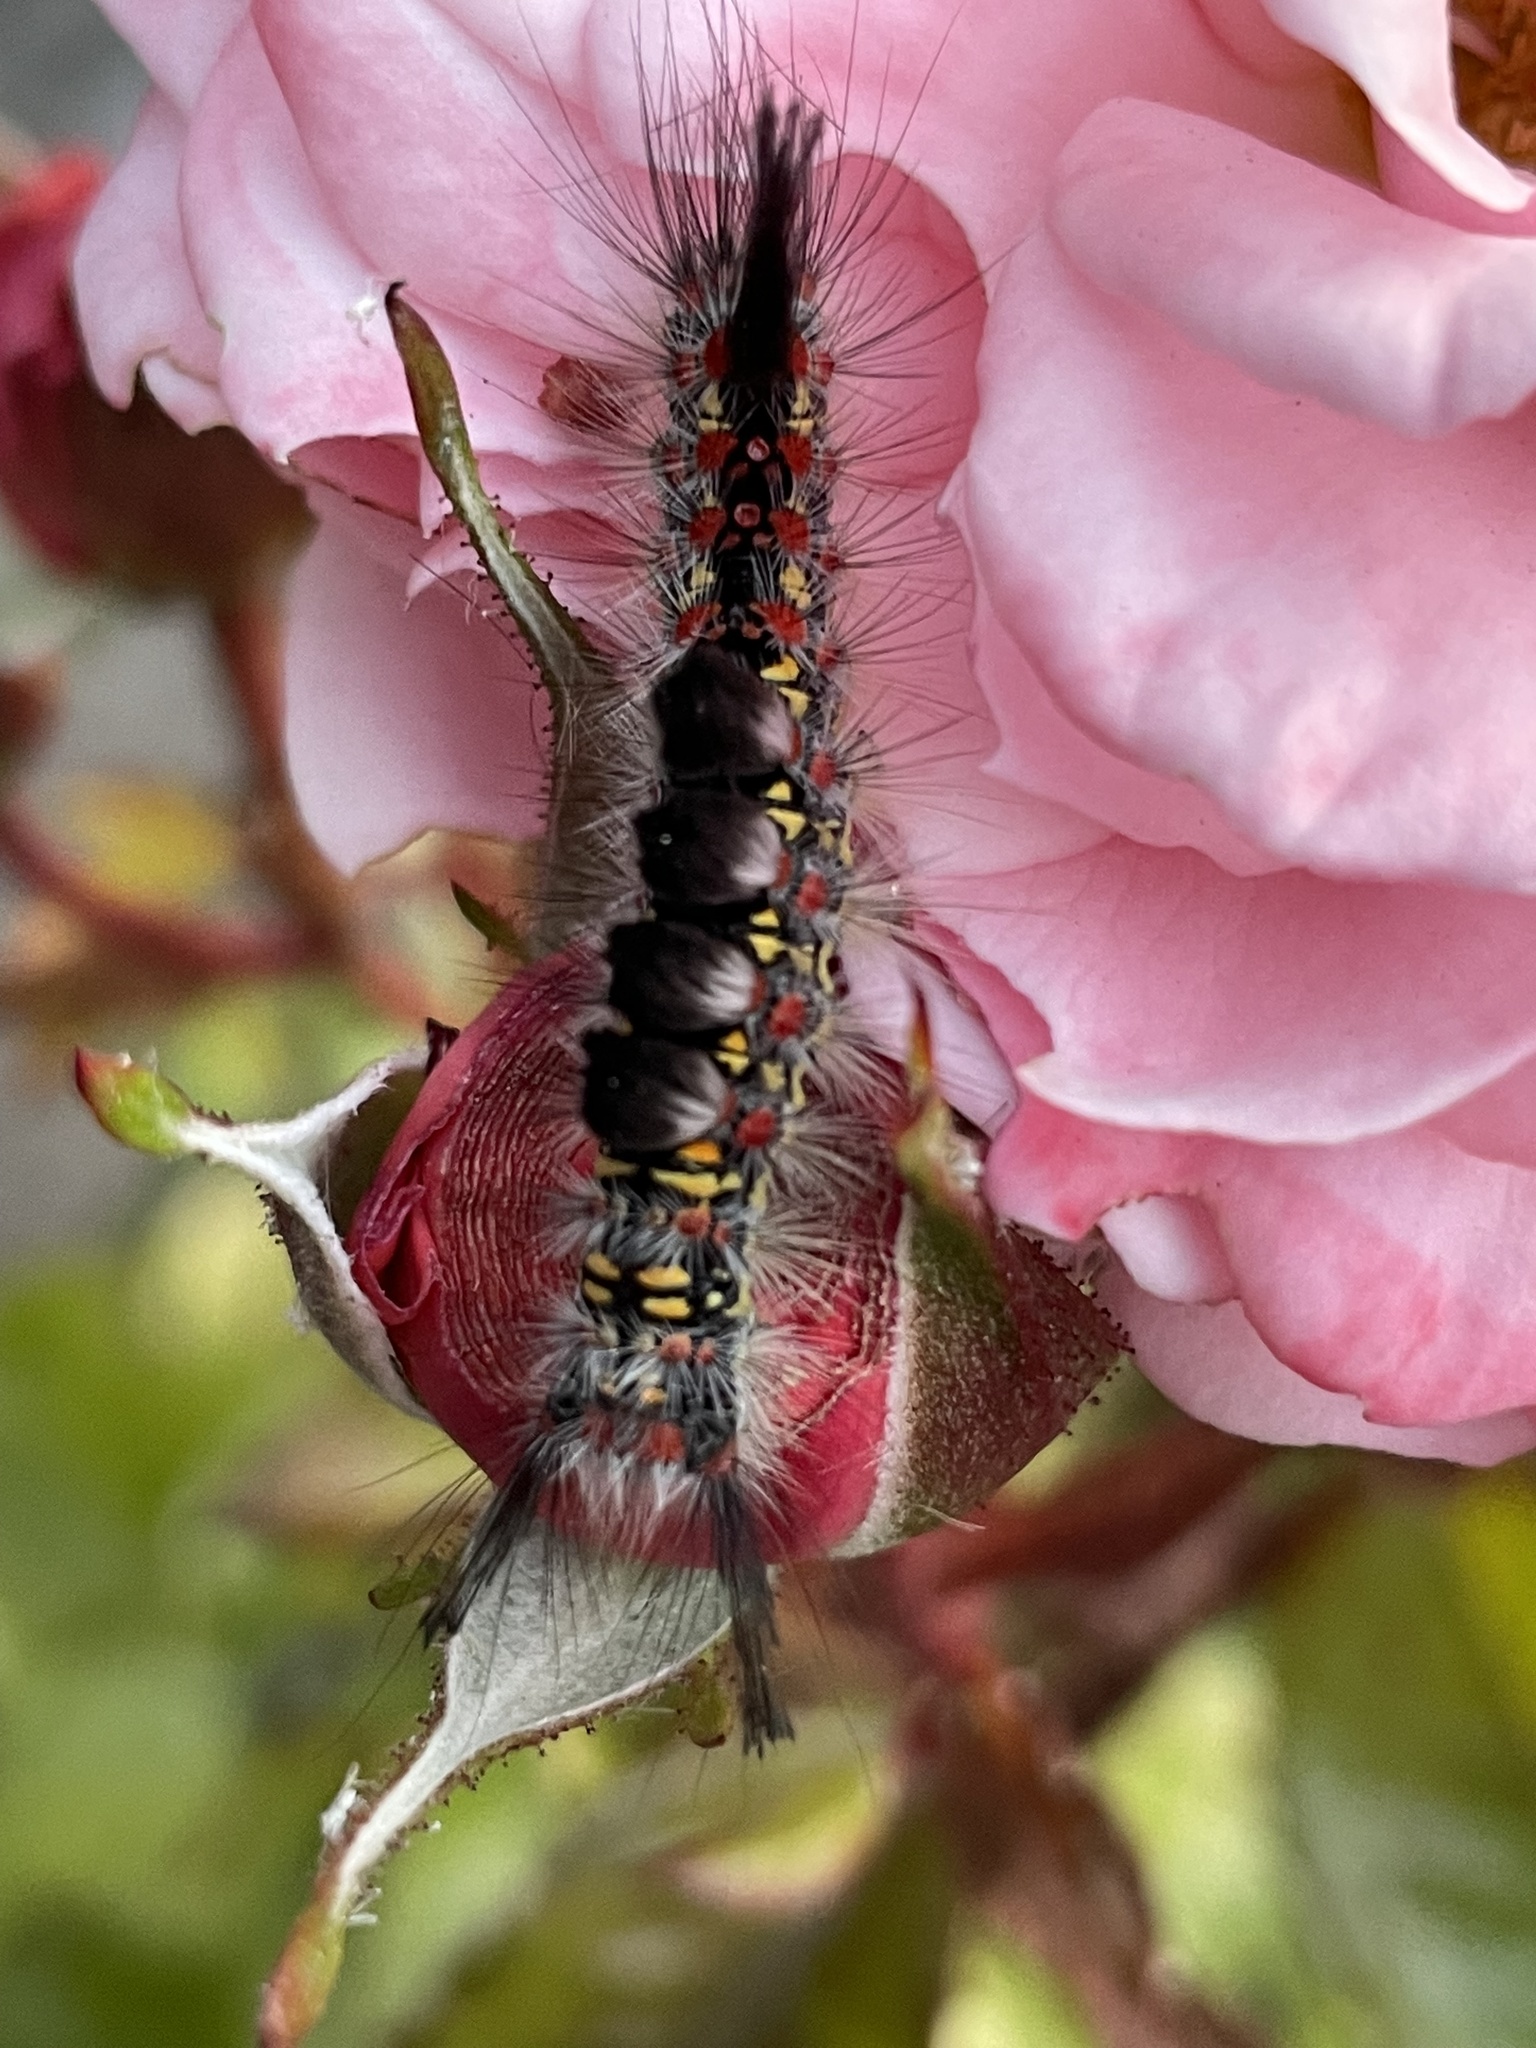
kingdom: Animalia
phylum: Arthropoda
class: Insecta
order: Lepidoptera
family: Erebidae
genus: Orgyia
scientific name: Orgyia vetusta
